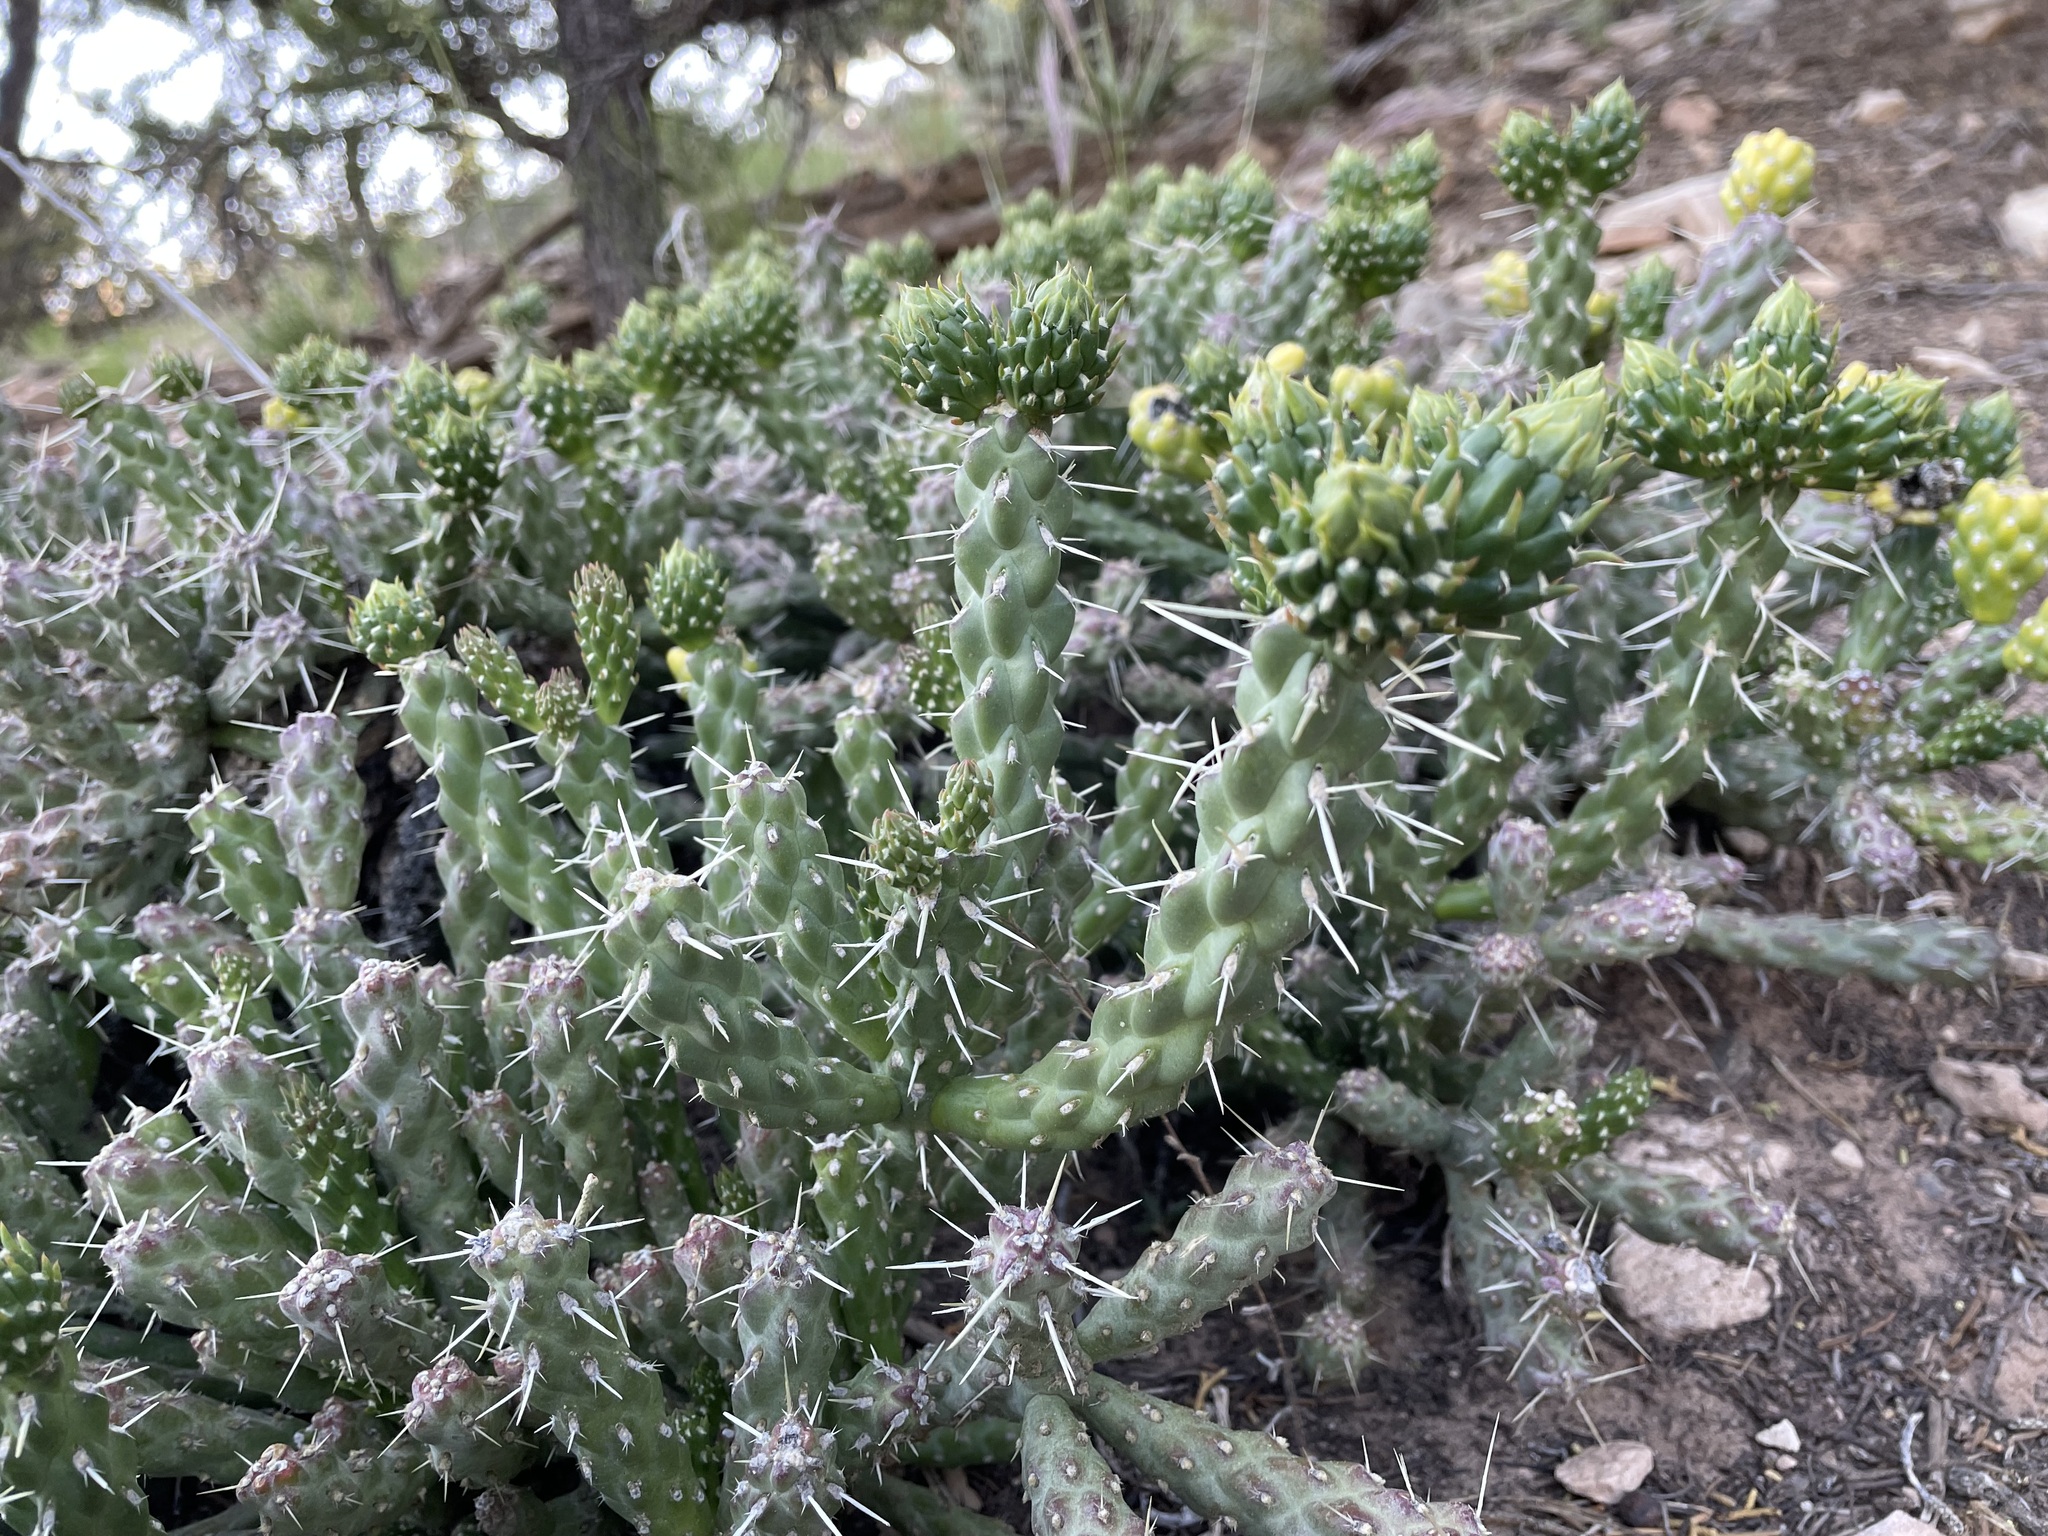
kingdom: Plantae
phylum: Tracheophyta
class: Magnoliopsida
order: Caryophyllales
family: Cactaceae
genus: Cylindropuntia
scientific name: Cylindropuntia whipplei
